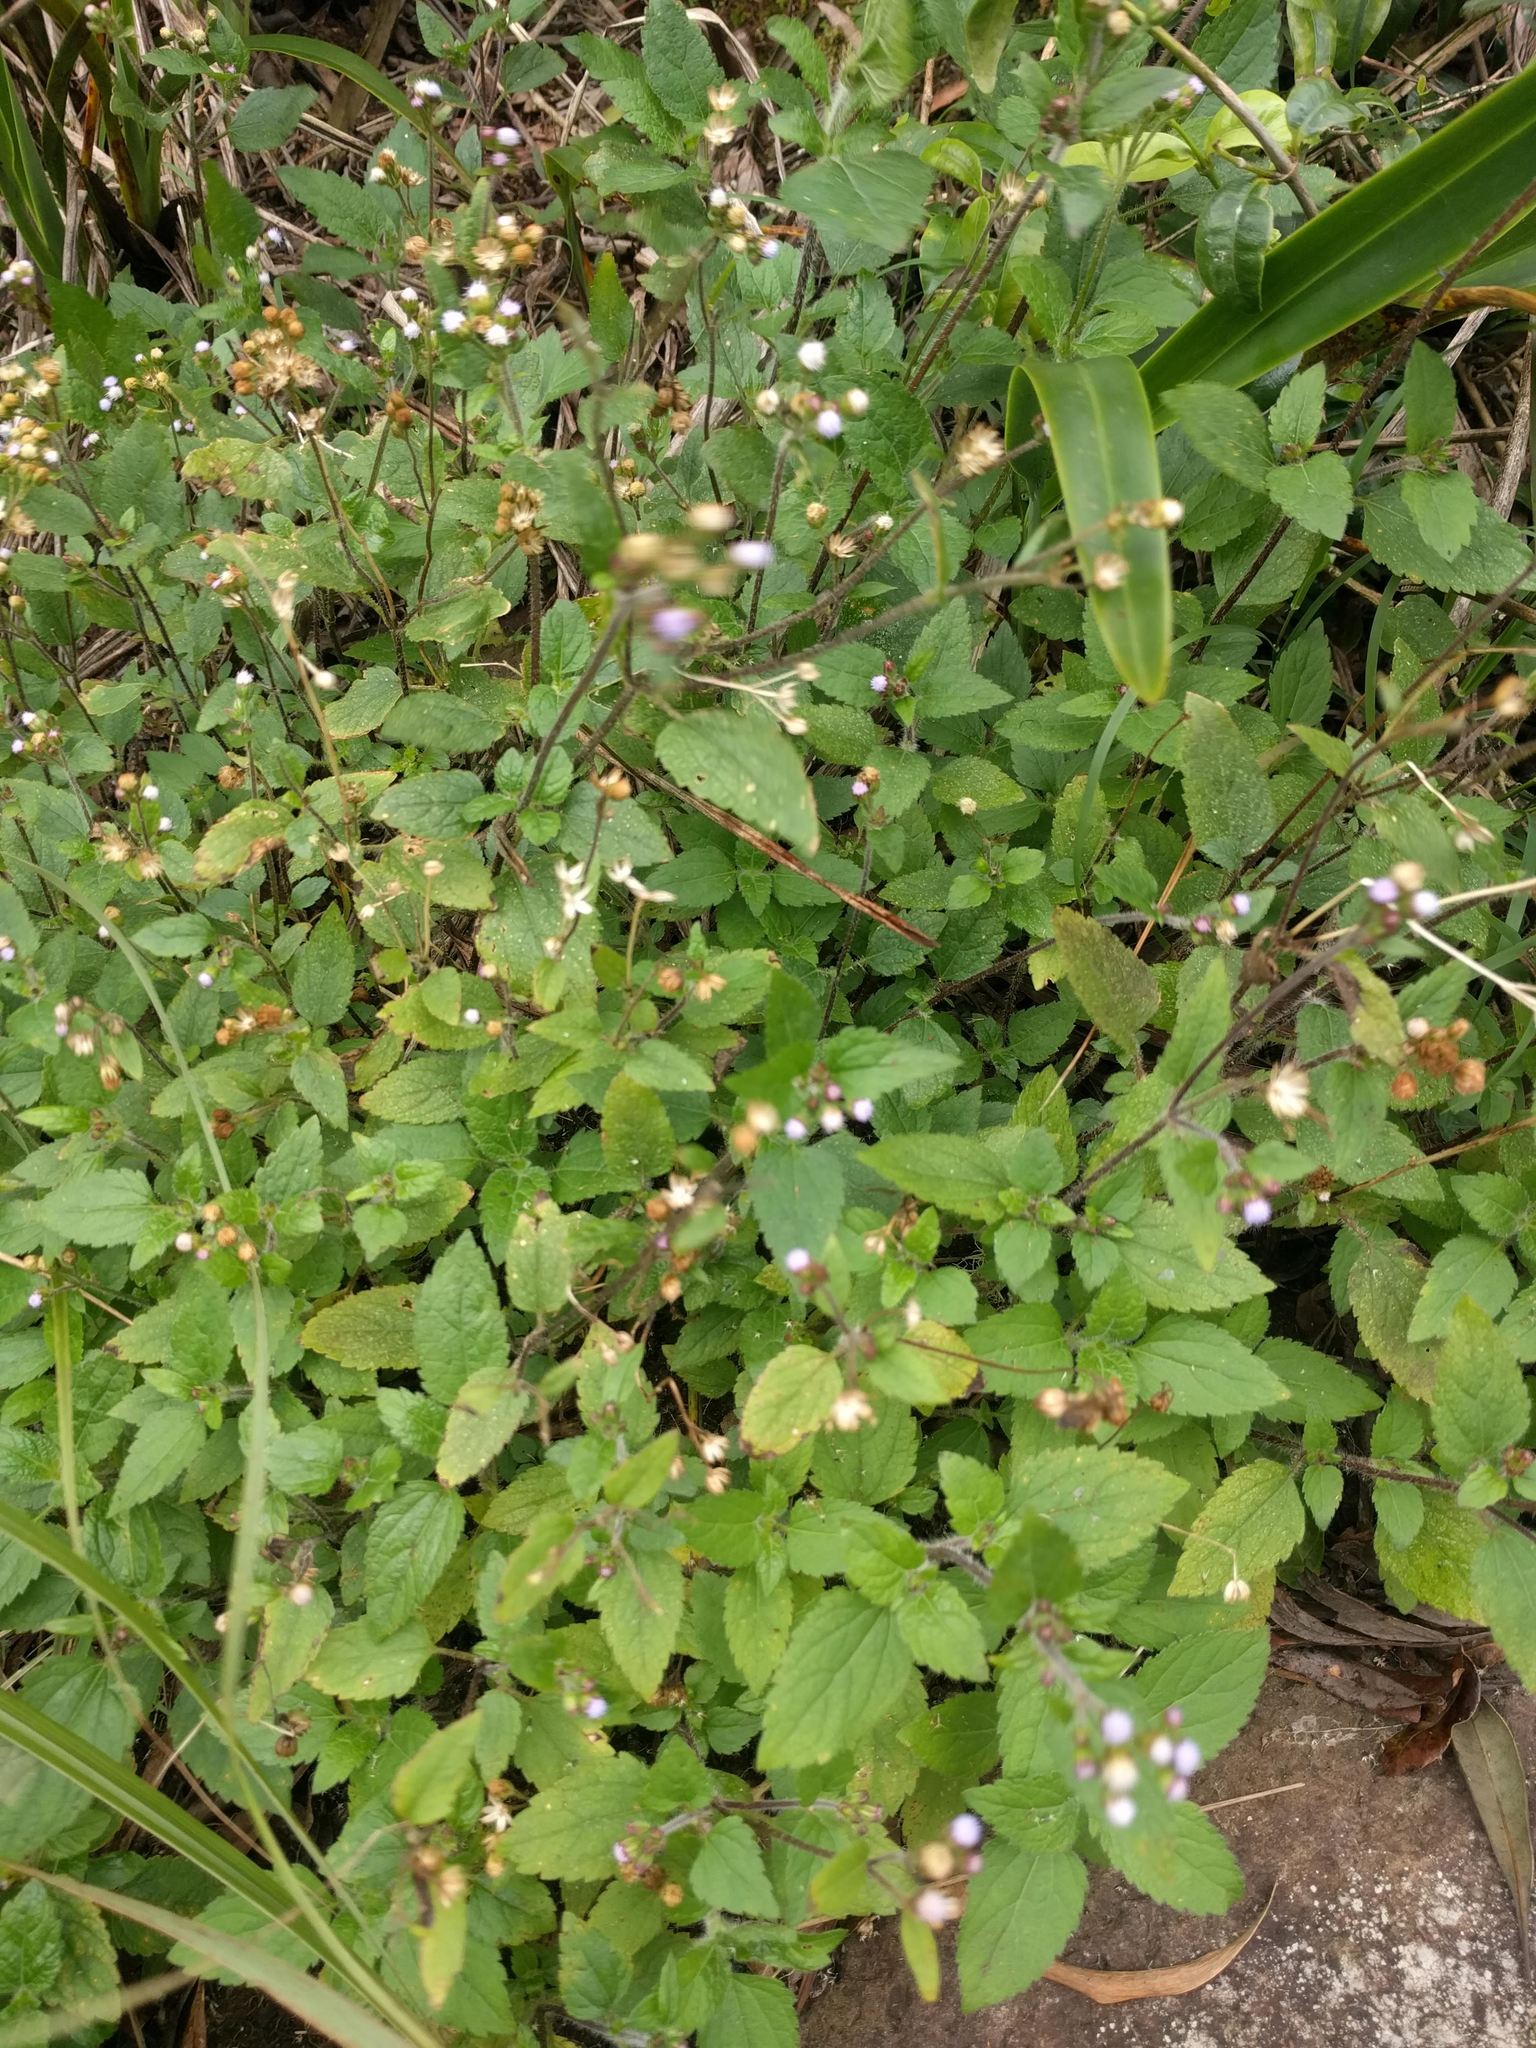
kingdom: Plantae
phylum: Tracheophyta
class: Magnoliopsida
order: Asterales
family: Asteraceae
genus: Ageratum
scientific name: Ageratum conyzoides
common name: Tropical whiteweed
